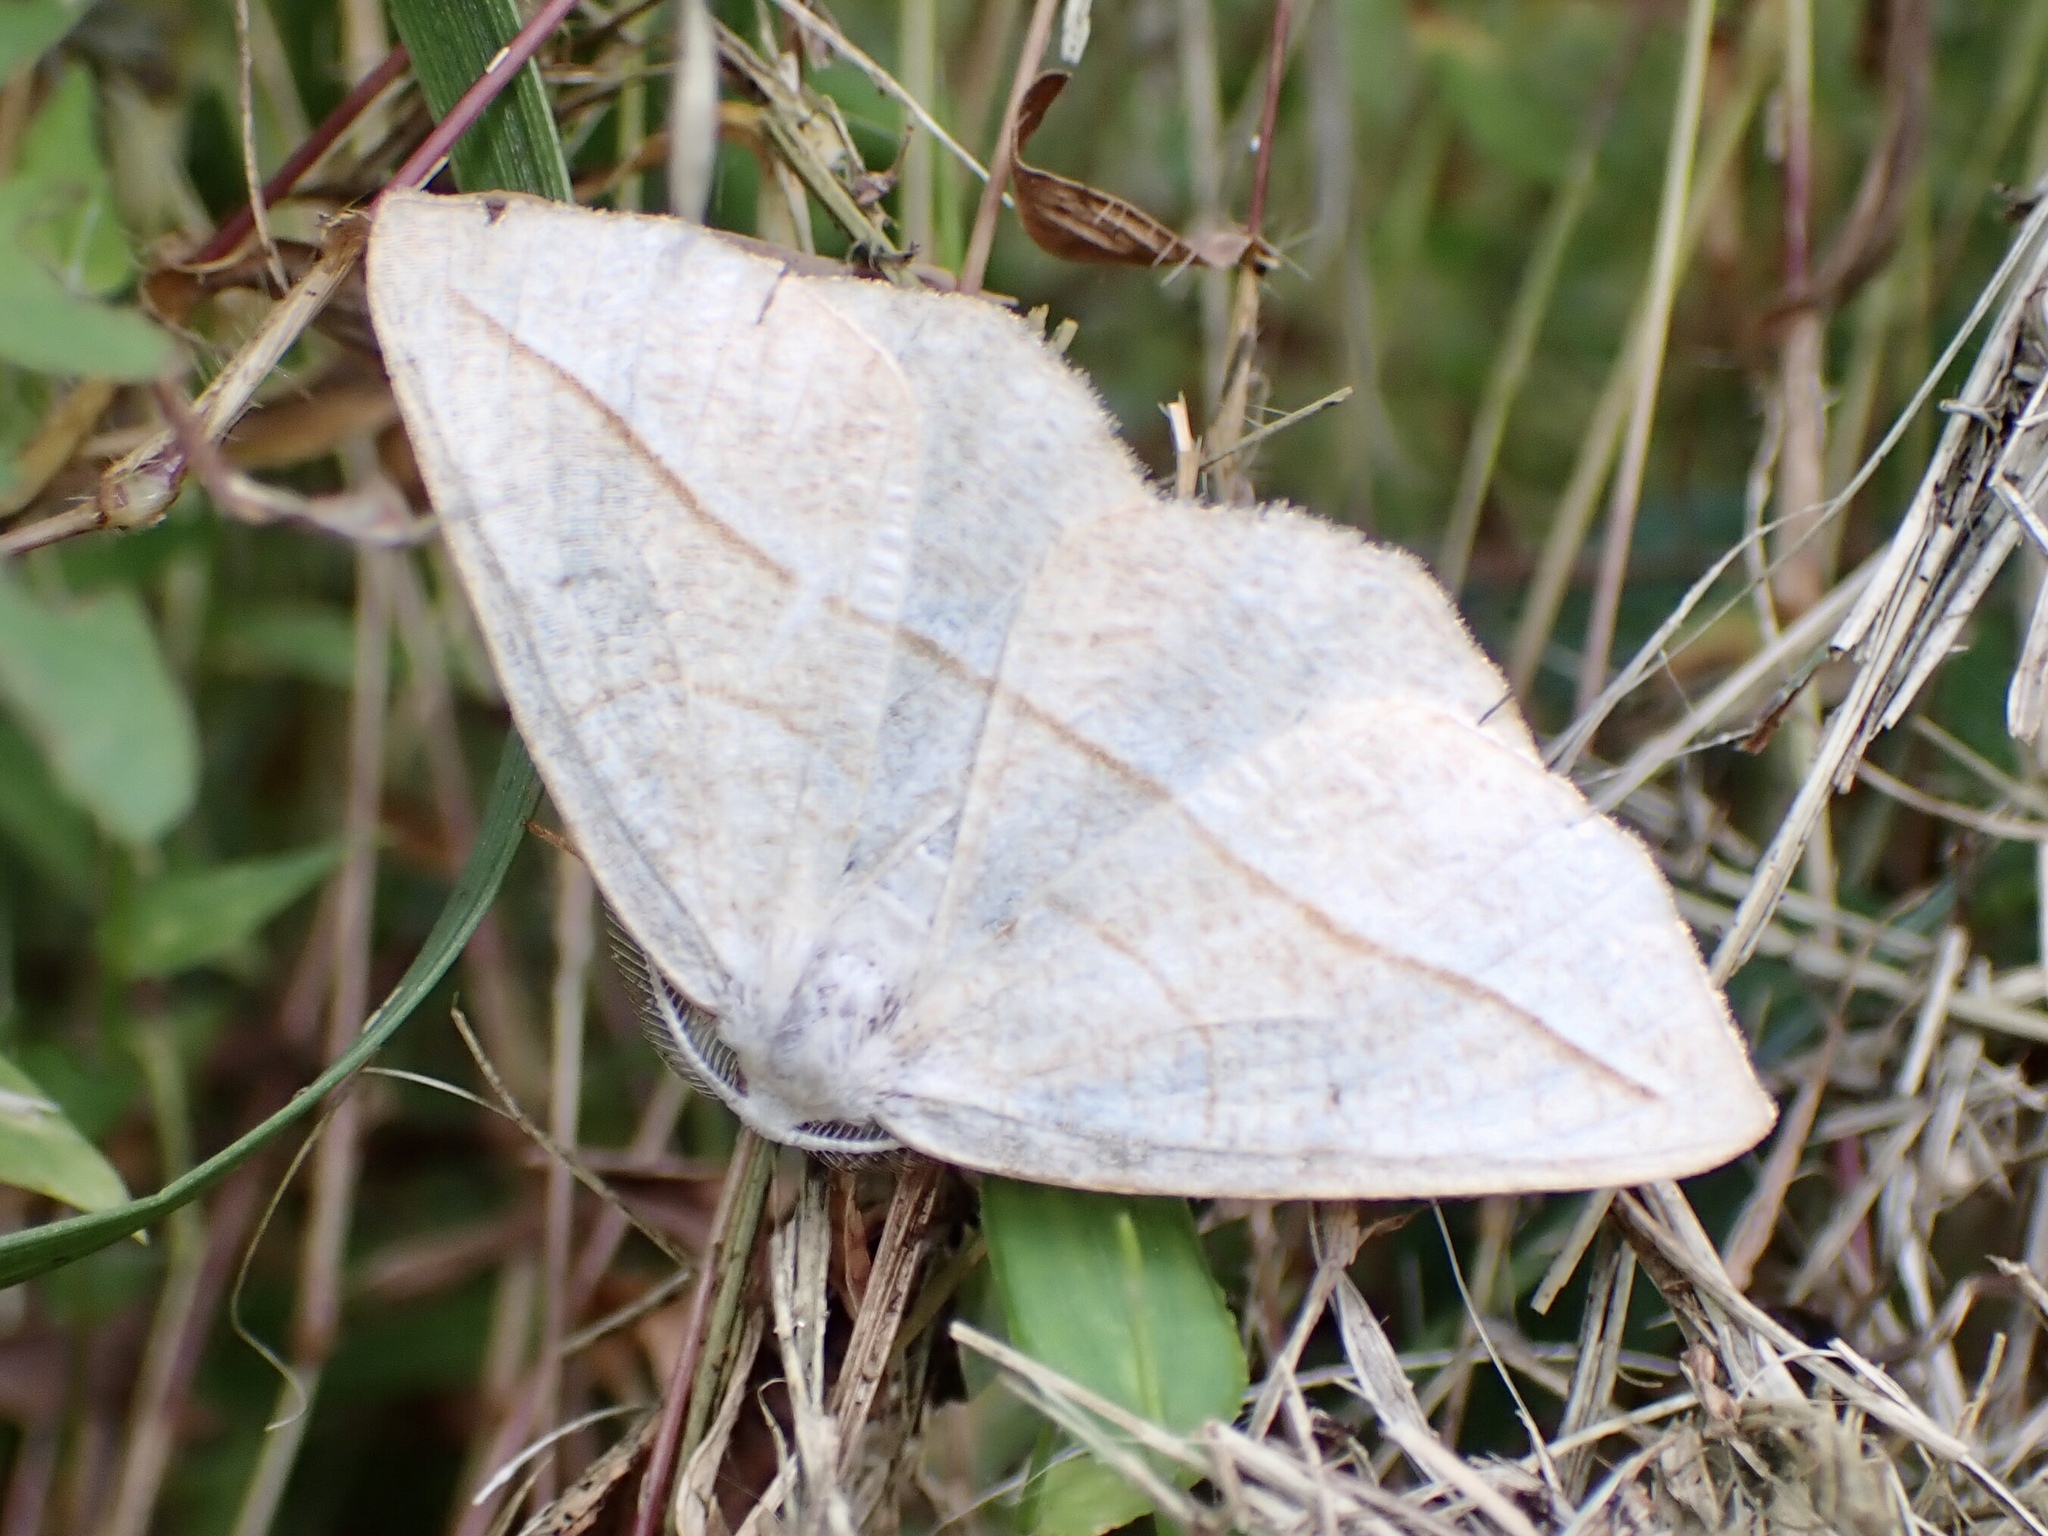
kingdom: Animalia
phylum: Arthropoda
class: Insecta
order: Lepidoptera
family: Geometridae
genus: Eusarca
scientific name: Eusarca confusaria
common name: Confused eusarca
